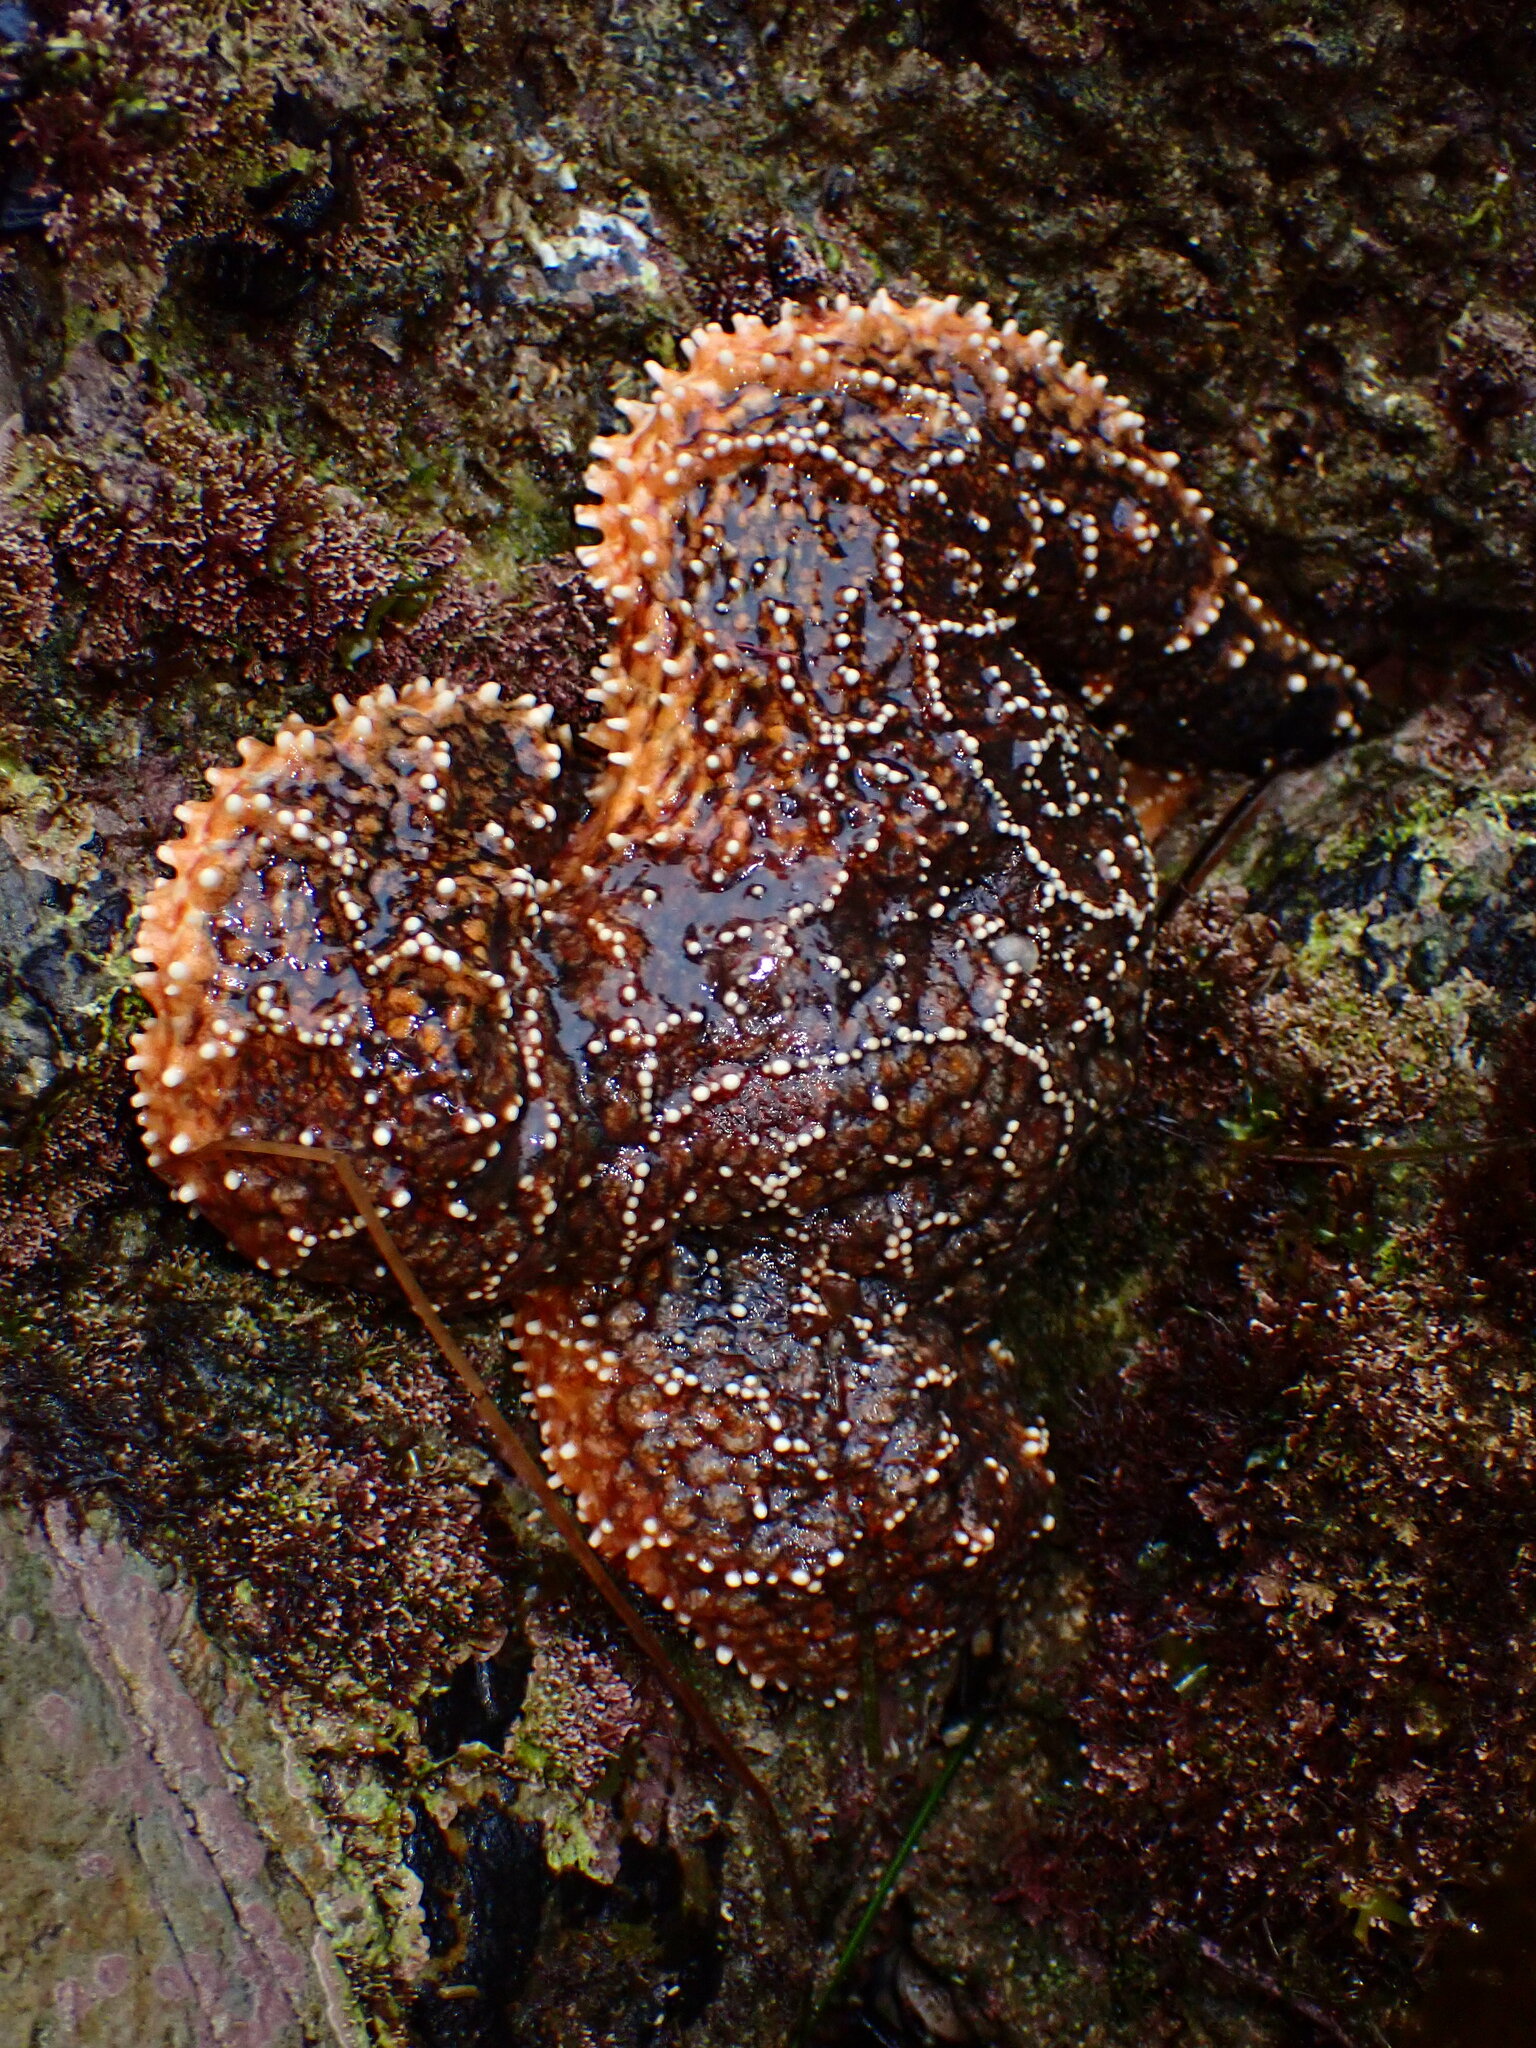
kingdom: Animalia
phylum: Echinodermata
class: Asteroidea
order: Forcipulatida
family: Asteriidae
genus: Pisaster
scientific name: Pisaster ochraceus
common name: Ochre stars
